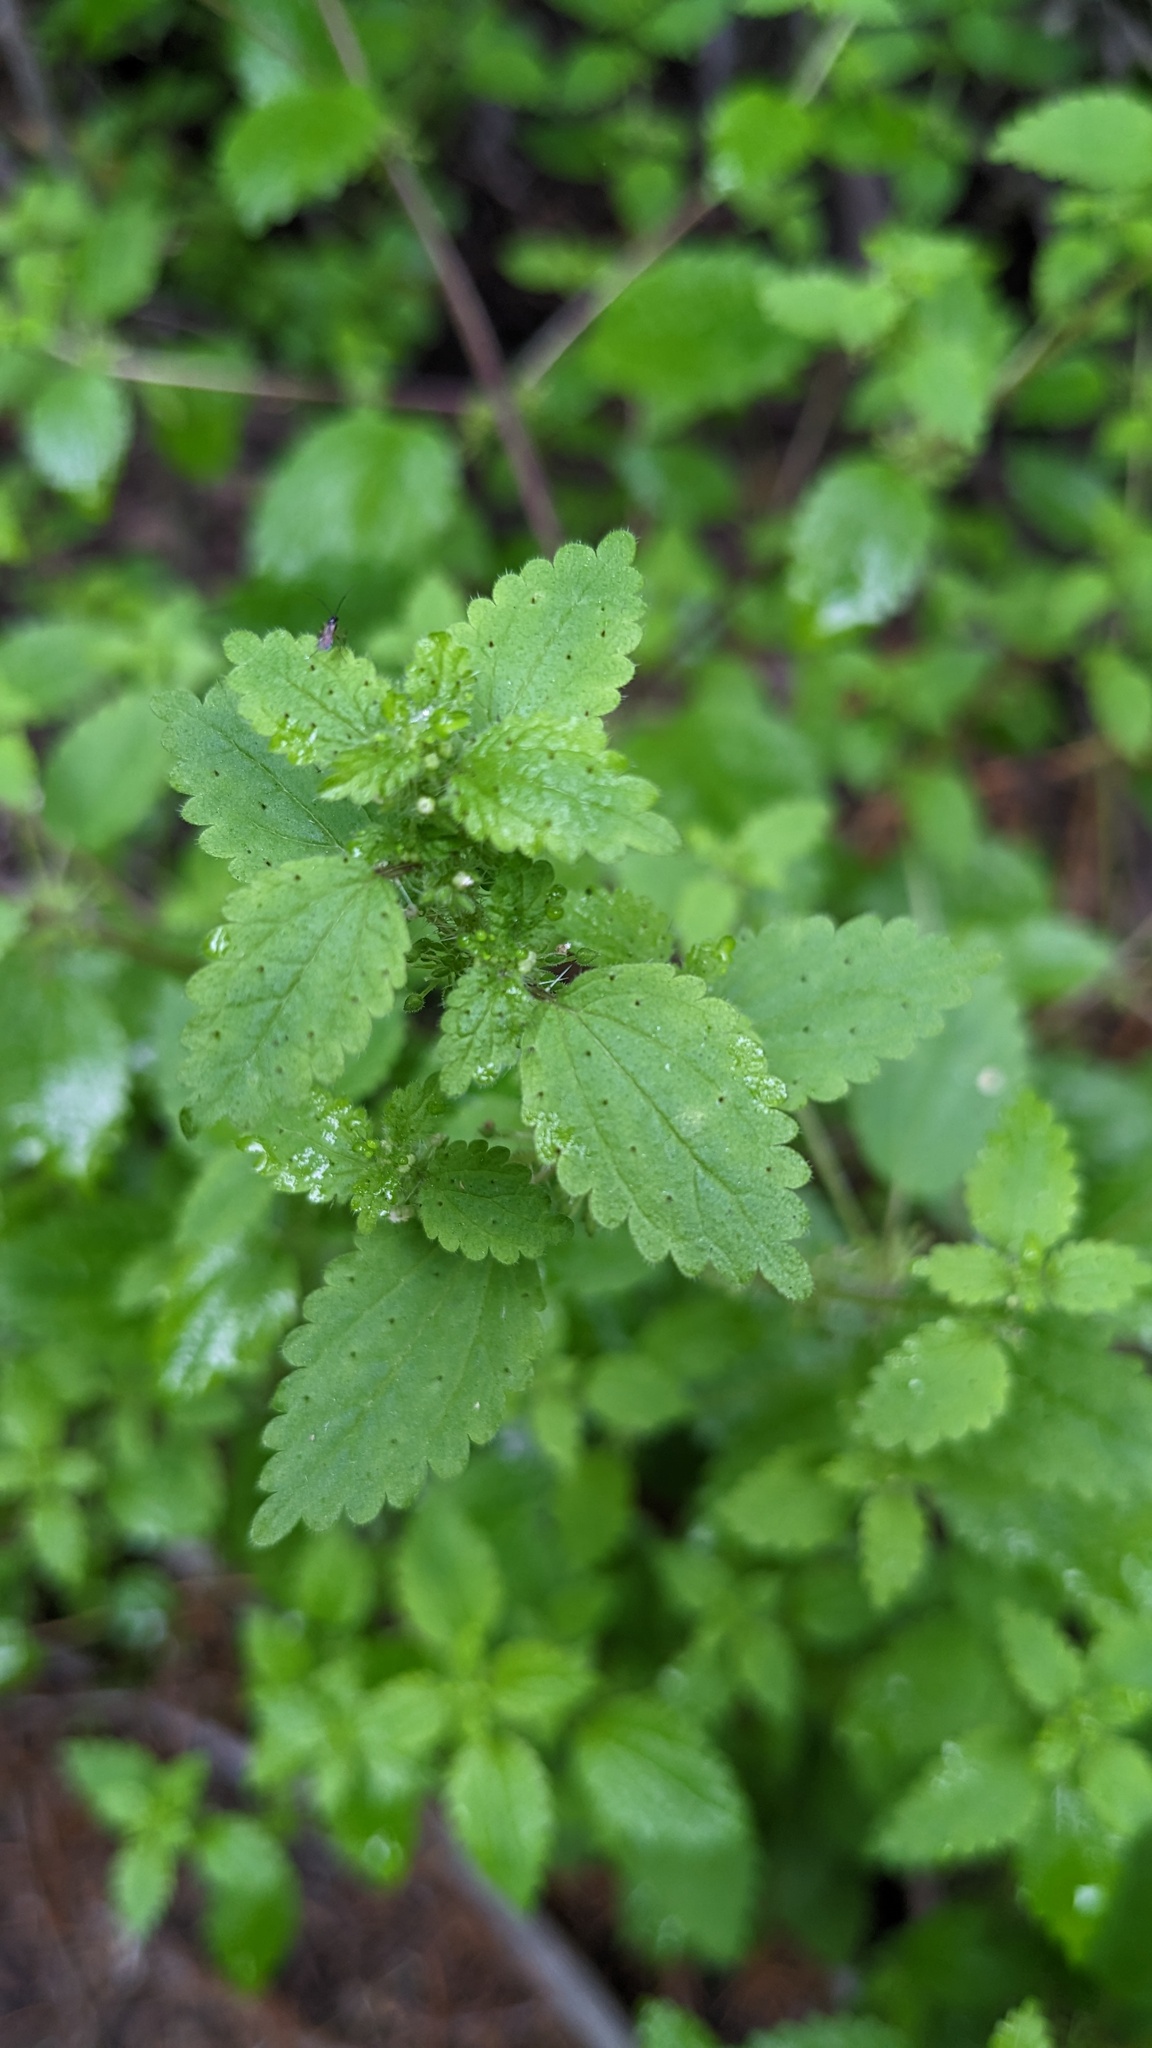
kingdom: Plantae
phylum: Tracheophyta
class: Magnoliopsida
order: Rosales
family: Urticaceae
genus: Hesperocnide
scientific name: Hesperocnide tenella
